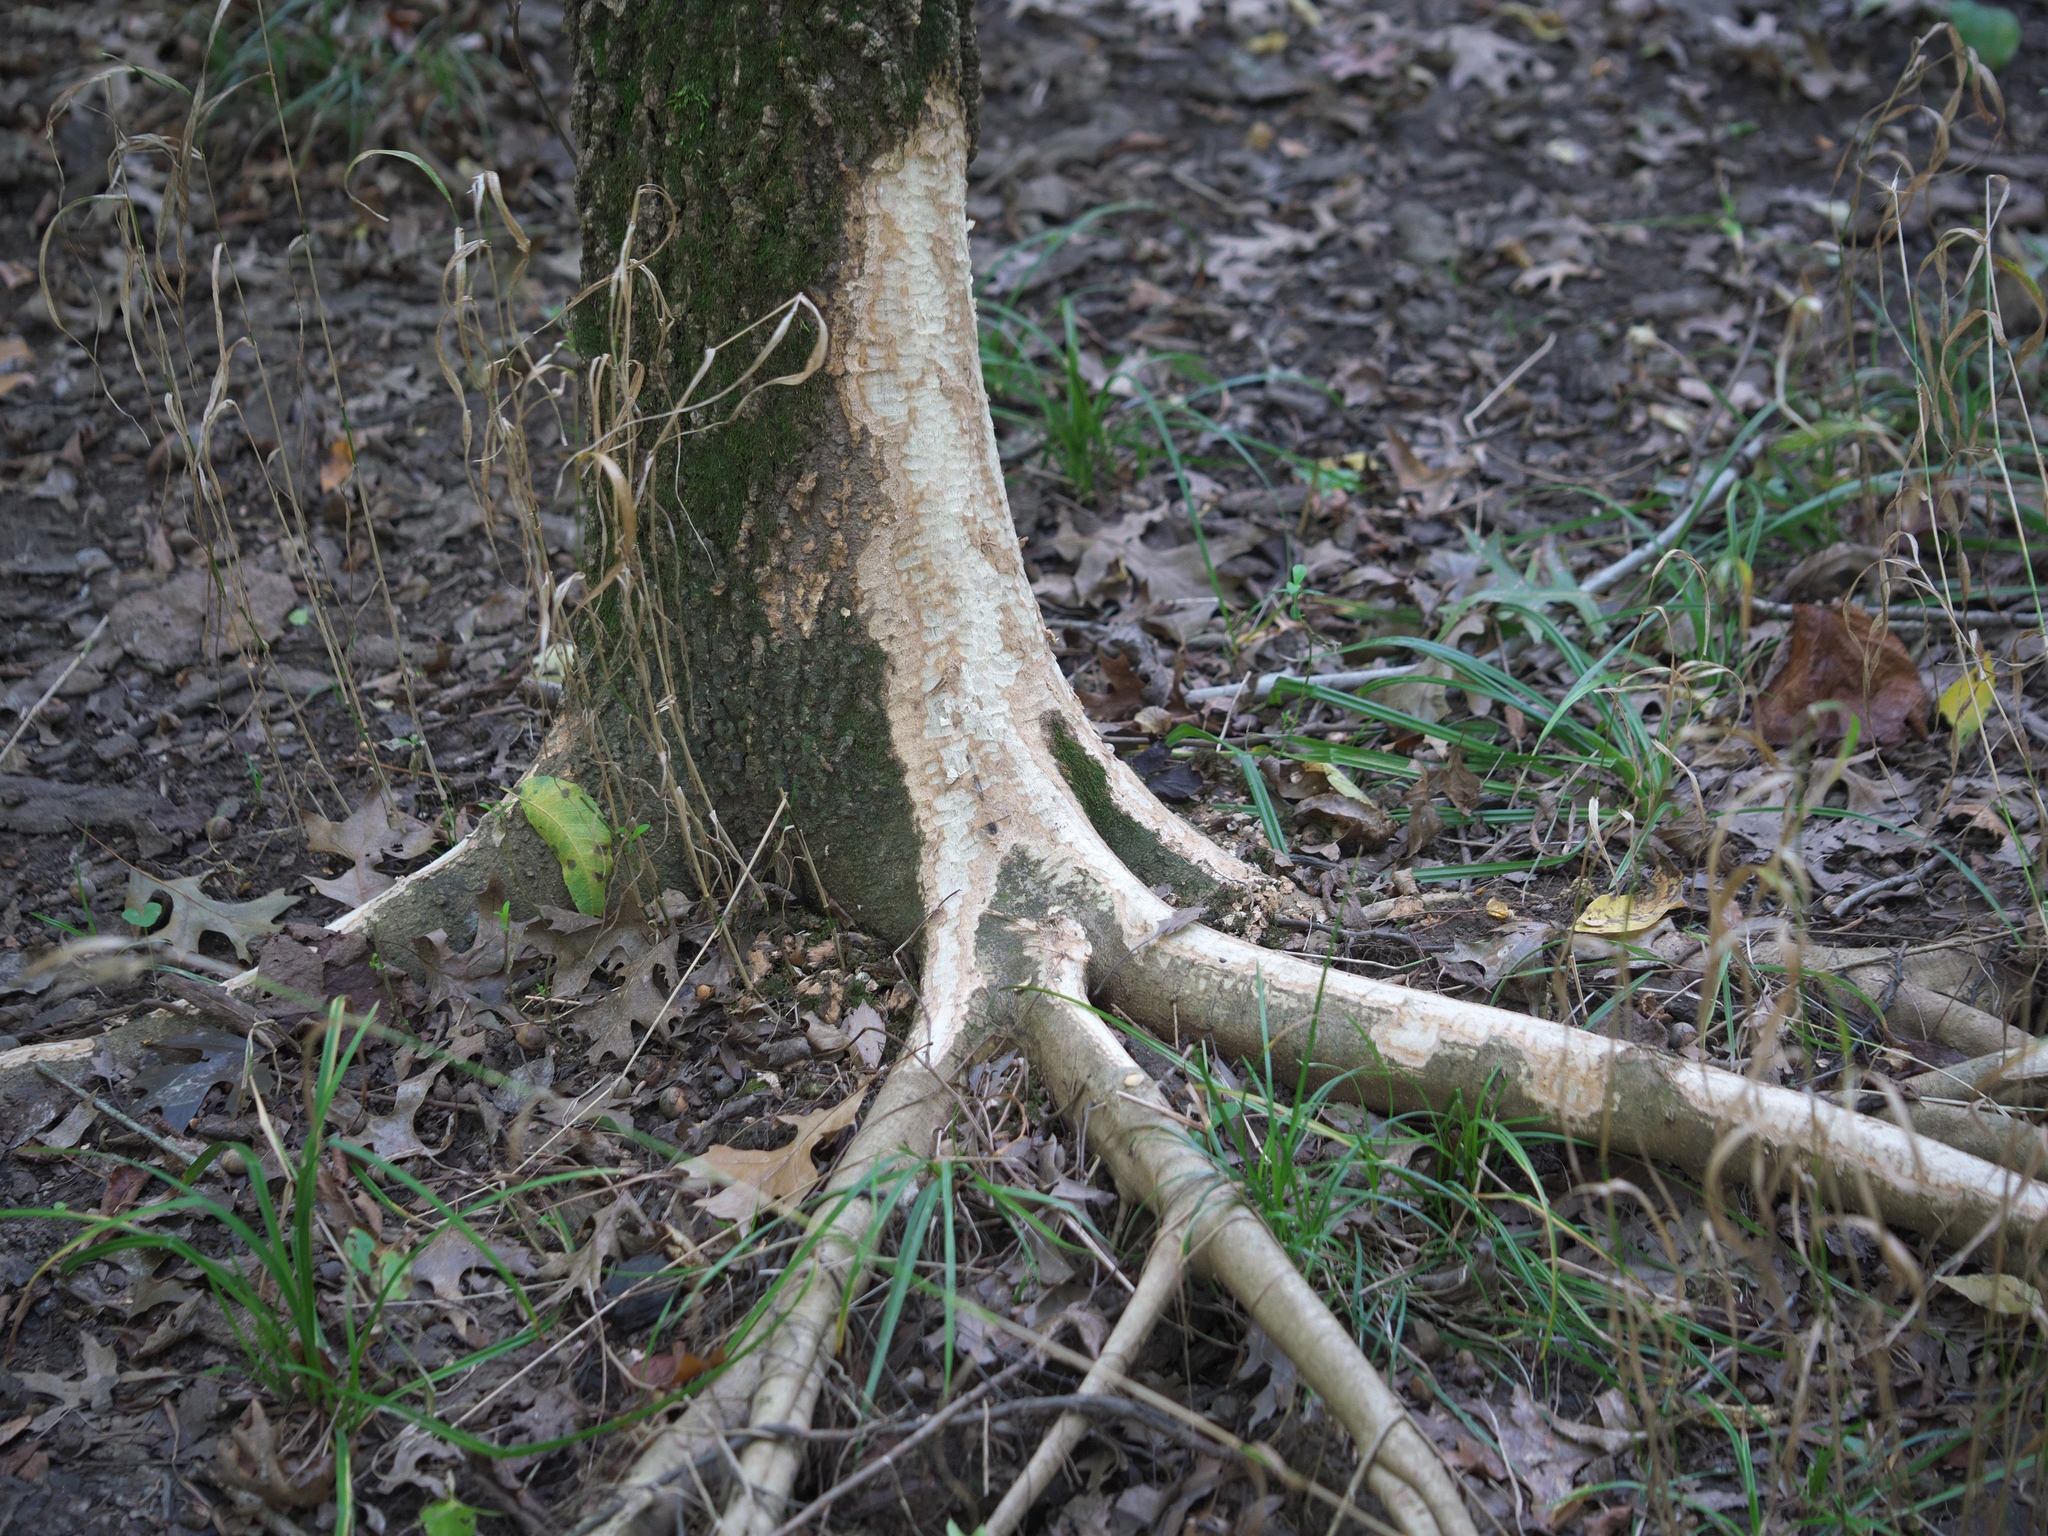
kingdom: Animalia
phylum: Chordata
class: Mammalia
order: Rodentia
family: Castoridae
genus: Castor
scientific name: Castor canadensis
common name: American beaver
